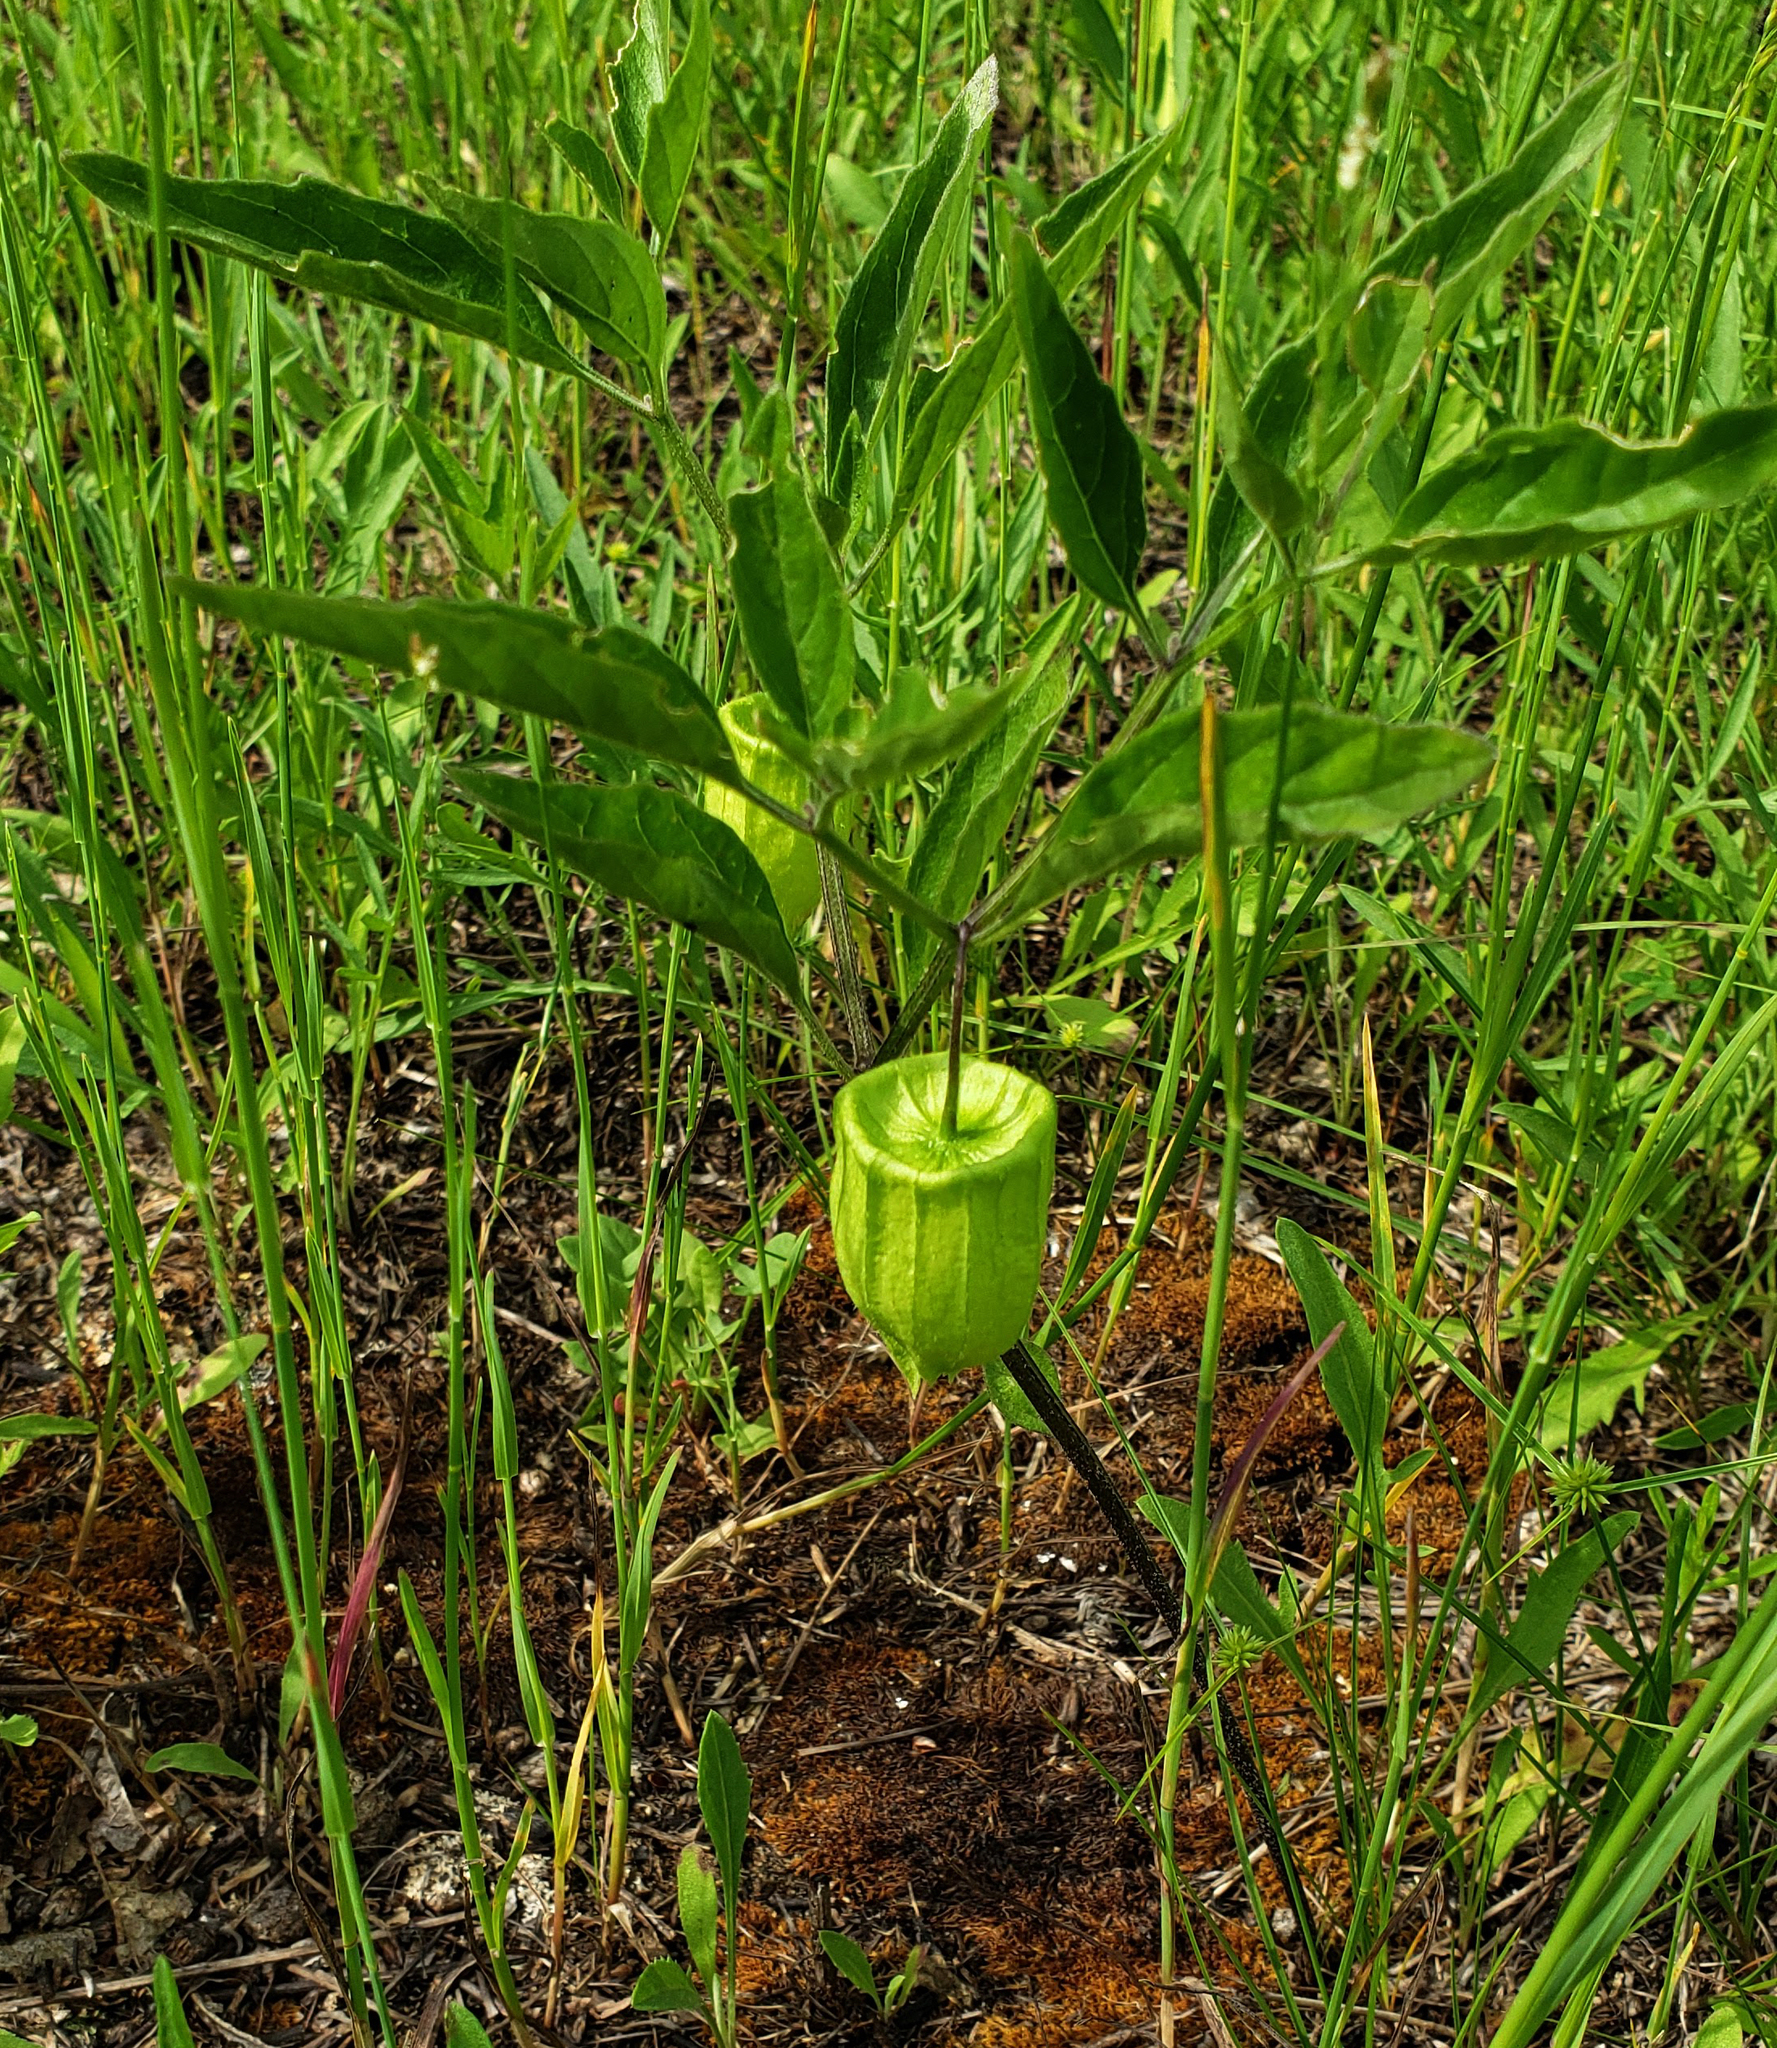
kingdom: Plantae
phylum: Tracheophyta
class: Magnoliopsida
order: Solanales
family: Solanaceae
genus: Physalis
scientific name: Physalis virginiana
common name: Virginia ground-cherry
